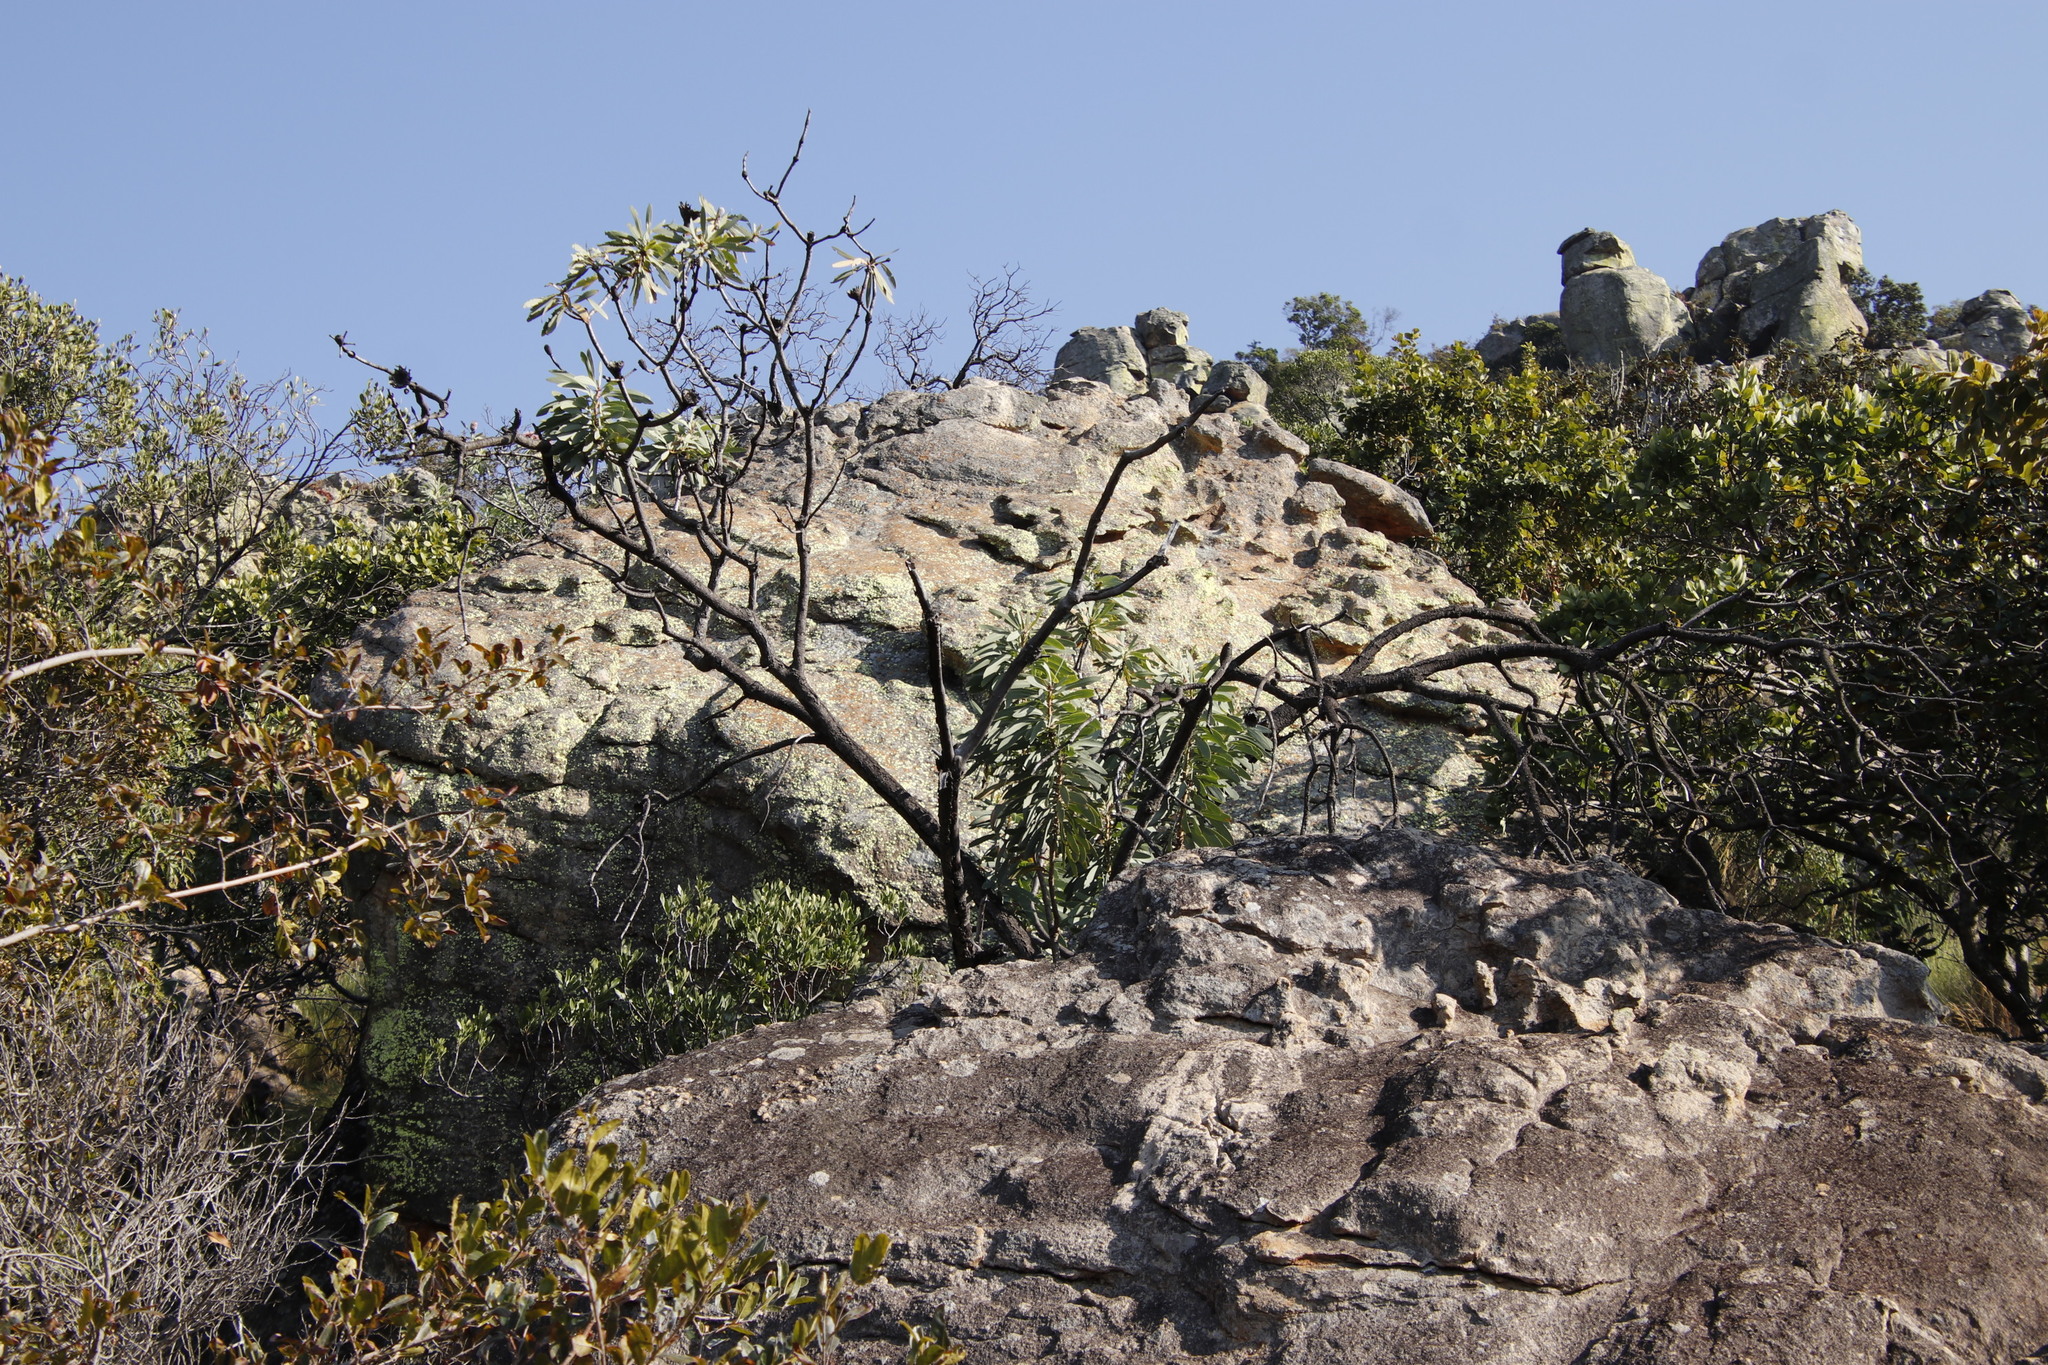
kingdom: Plantae
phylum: Tracheophyta
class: Magnoliopsida
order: Proteales
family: Proteaceae
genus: Protea
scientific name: Protea laetans
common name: Blyde protea
